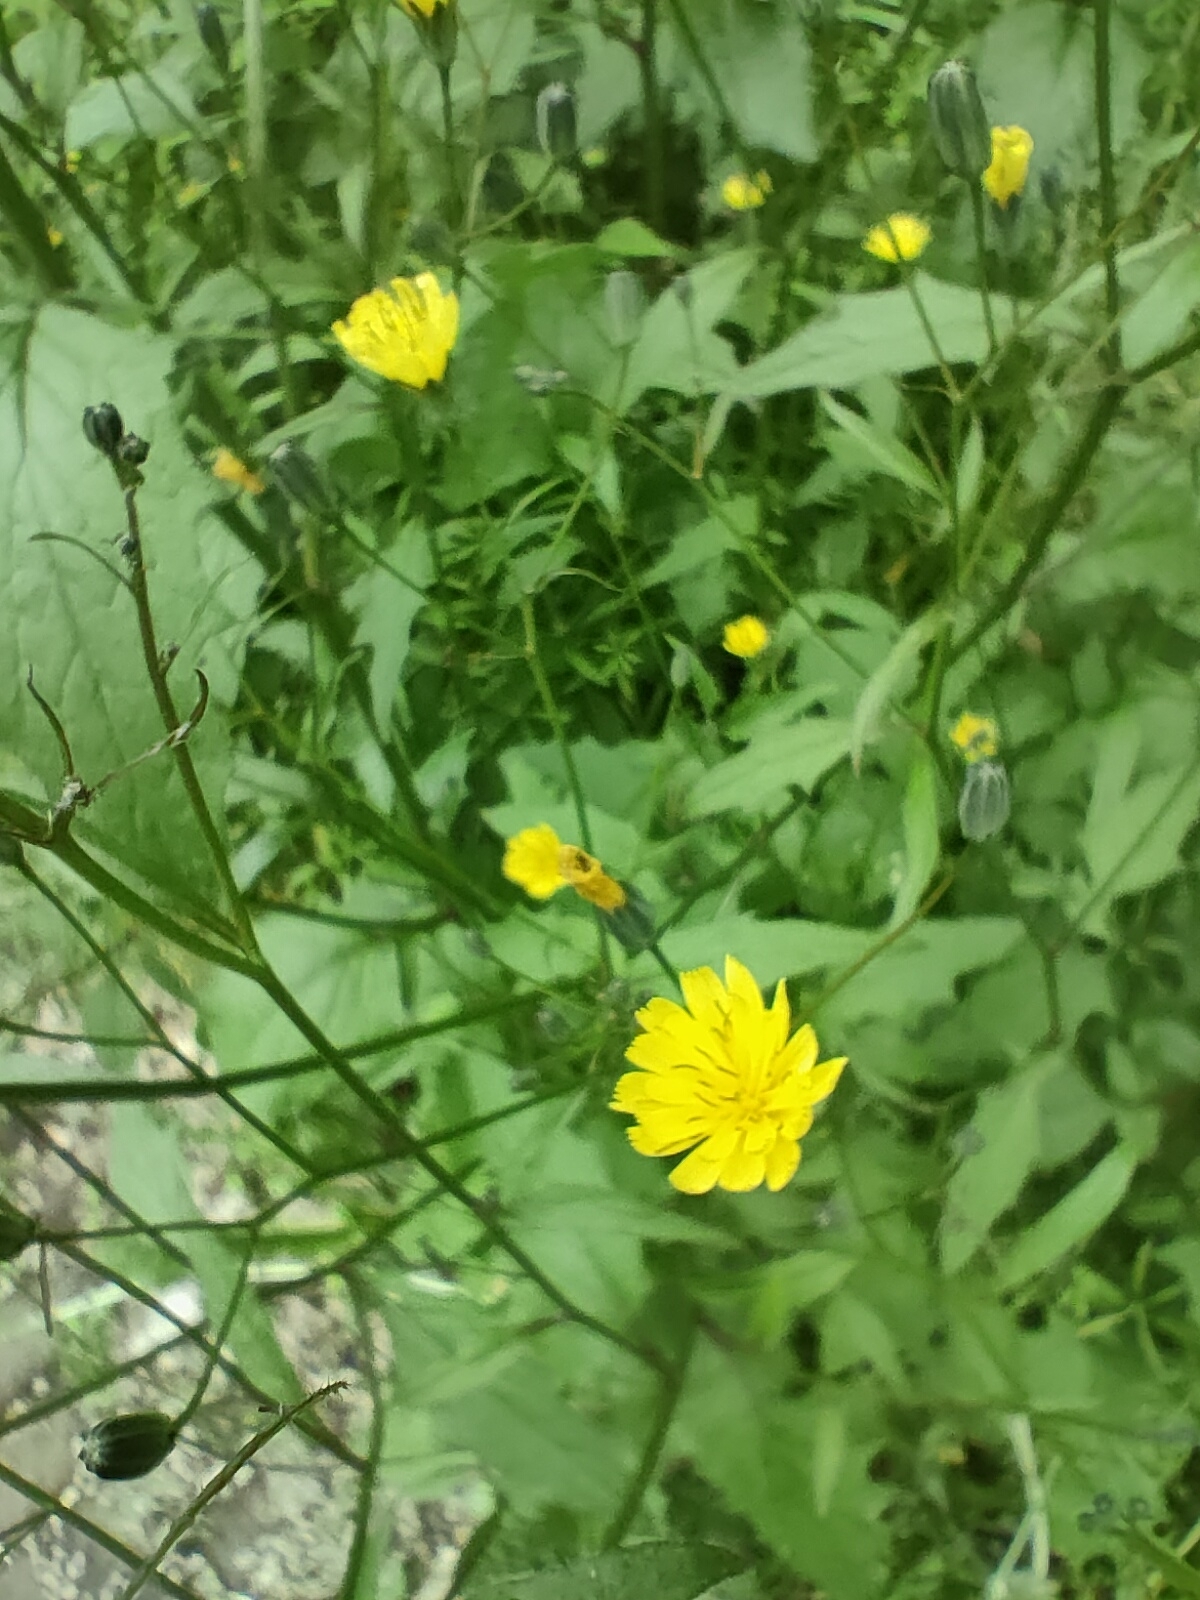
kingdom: Plantae
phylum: Tracheophyta
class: Magnoliopsida
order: Asterales
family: Asteraceae
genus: Lapsana
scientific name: Lapsana communis
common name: Nipplewort
